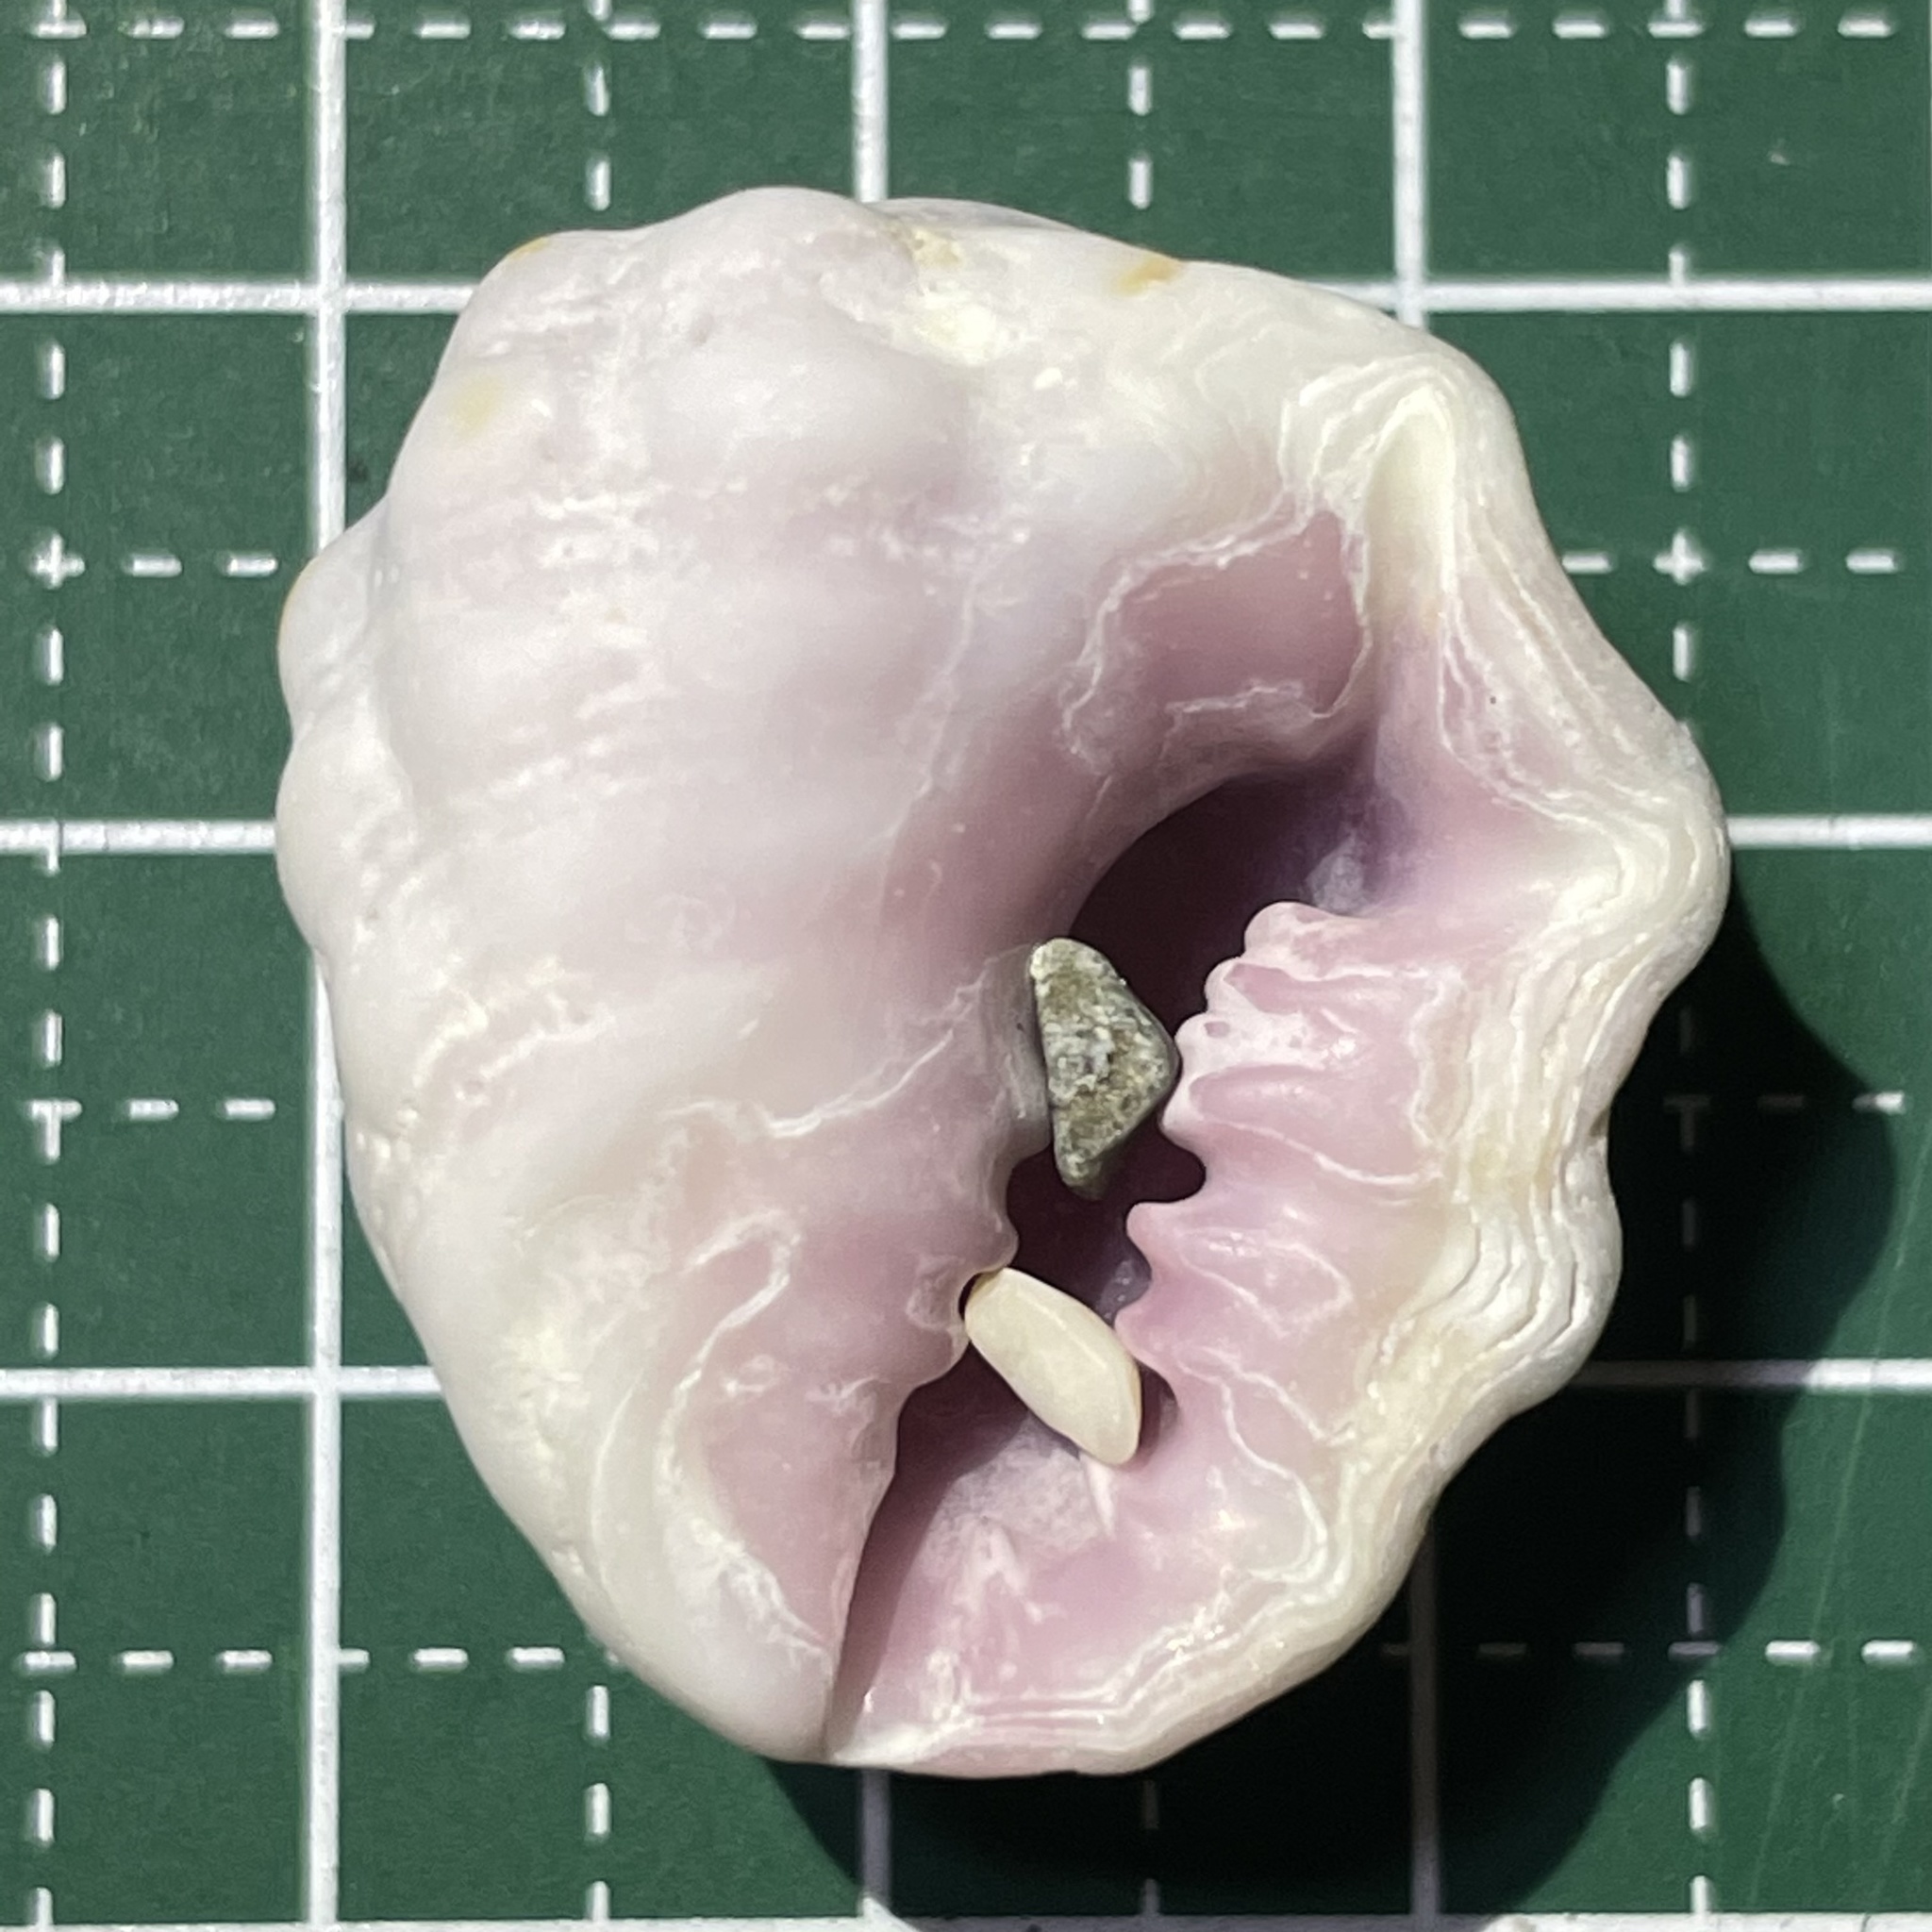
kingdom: Animalia
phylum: Mollusca
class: Gastropoda
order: Neogastropoda
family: Muricidae
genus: Drupa
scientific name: Drupa morum
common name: Purple drupe
